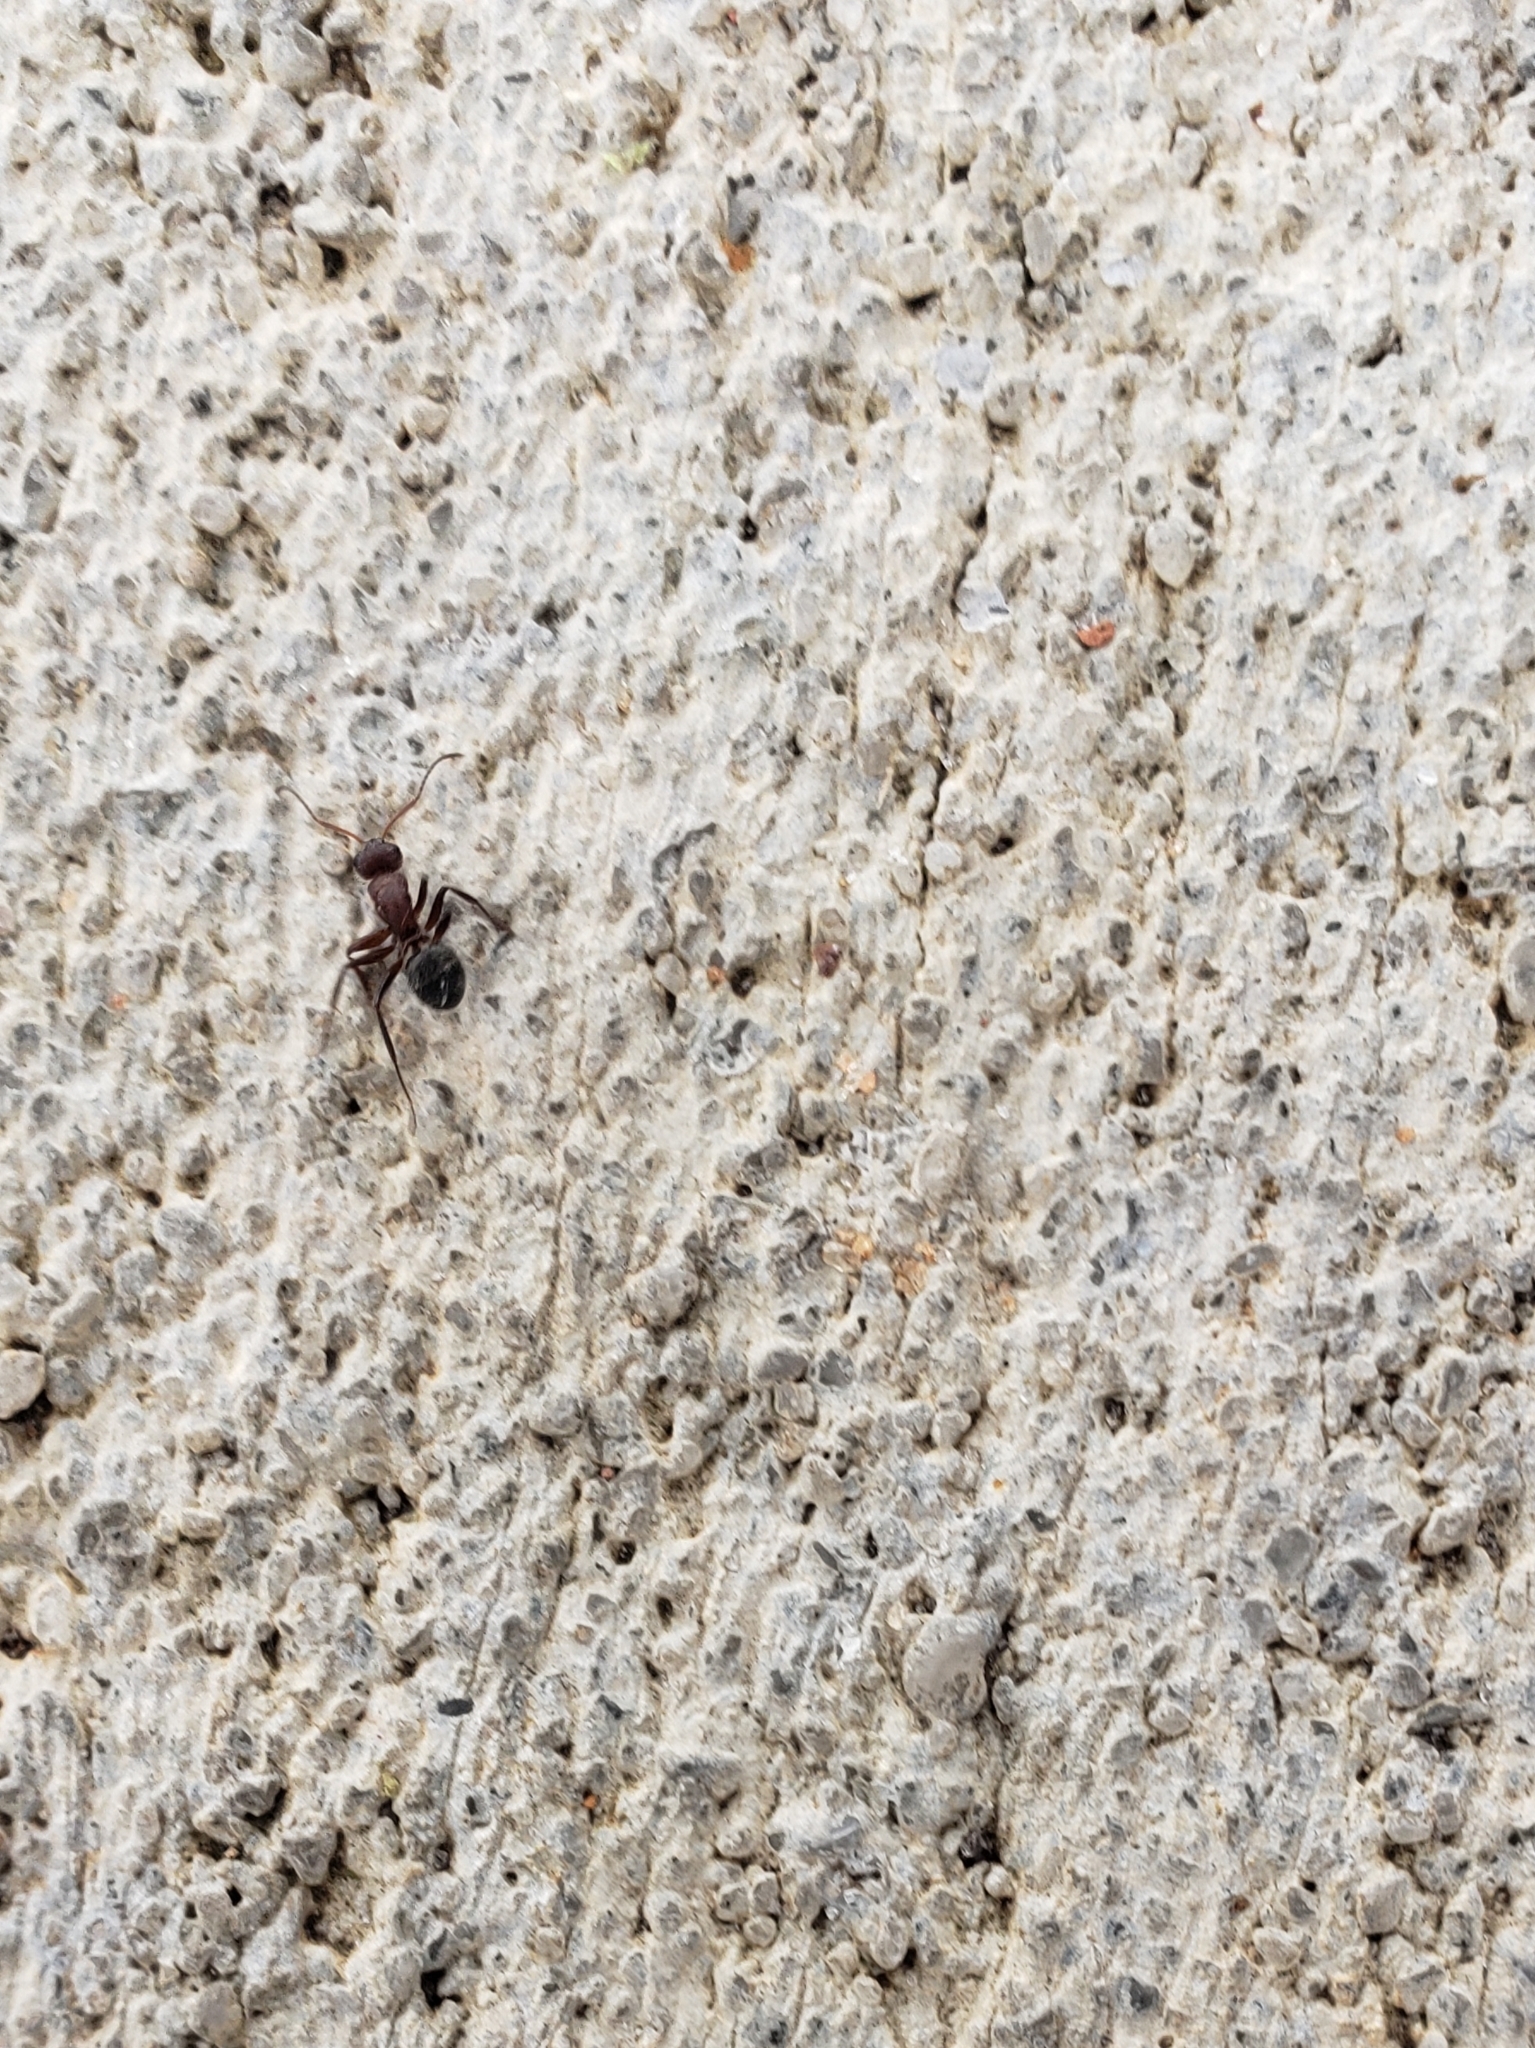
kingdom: Animalia
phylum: Arthropoda
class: Insecta
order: Hymenoptera
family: Formicidae
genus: Camponotus
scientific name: Camponotus planatus
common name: Compact carpenter ant
